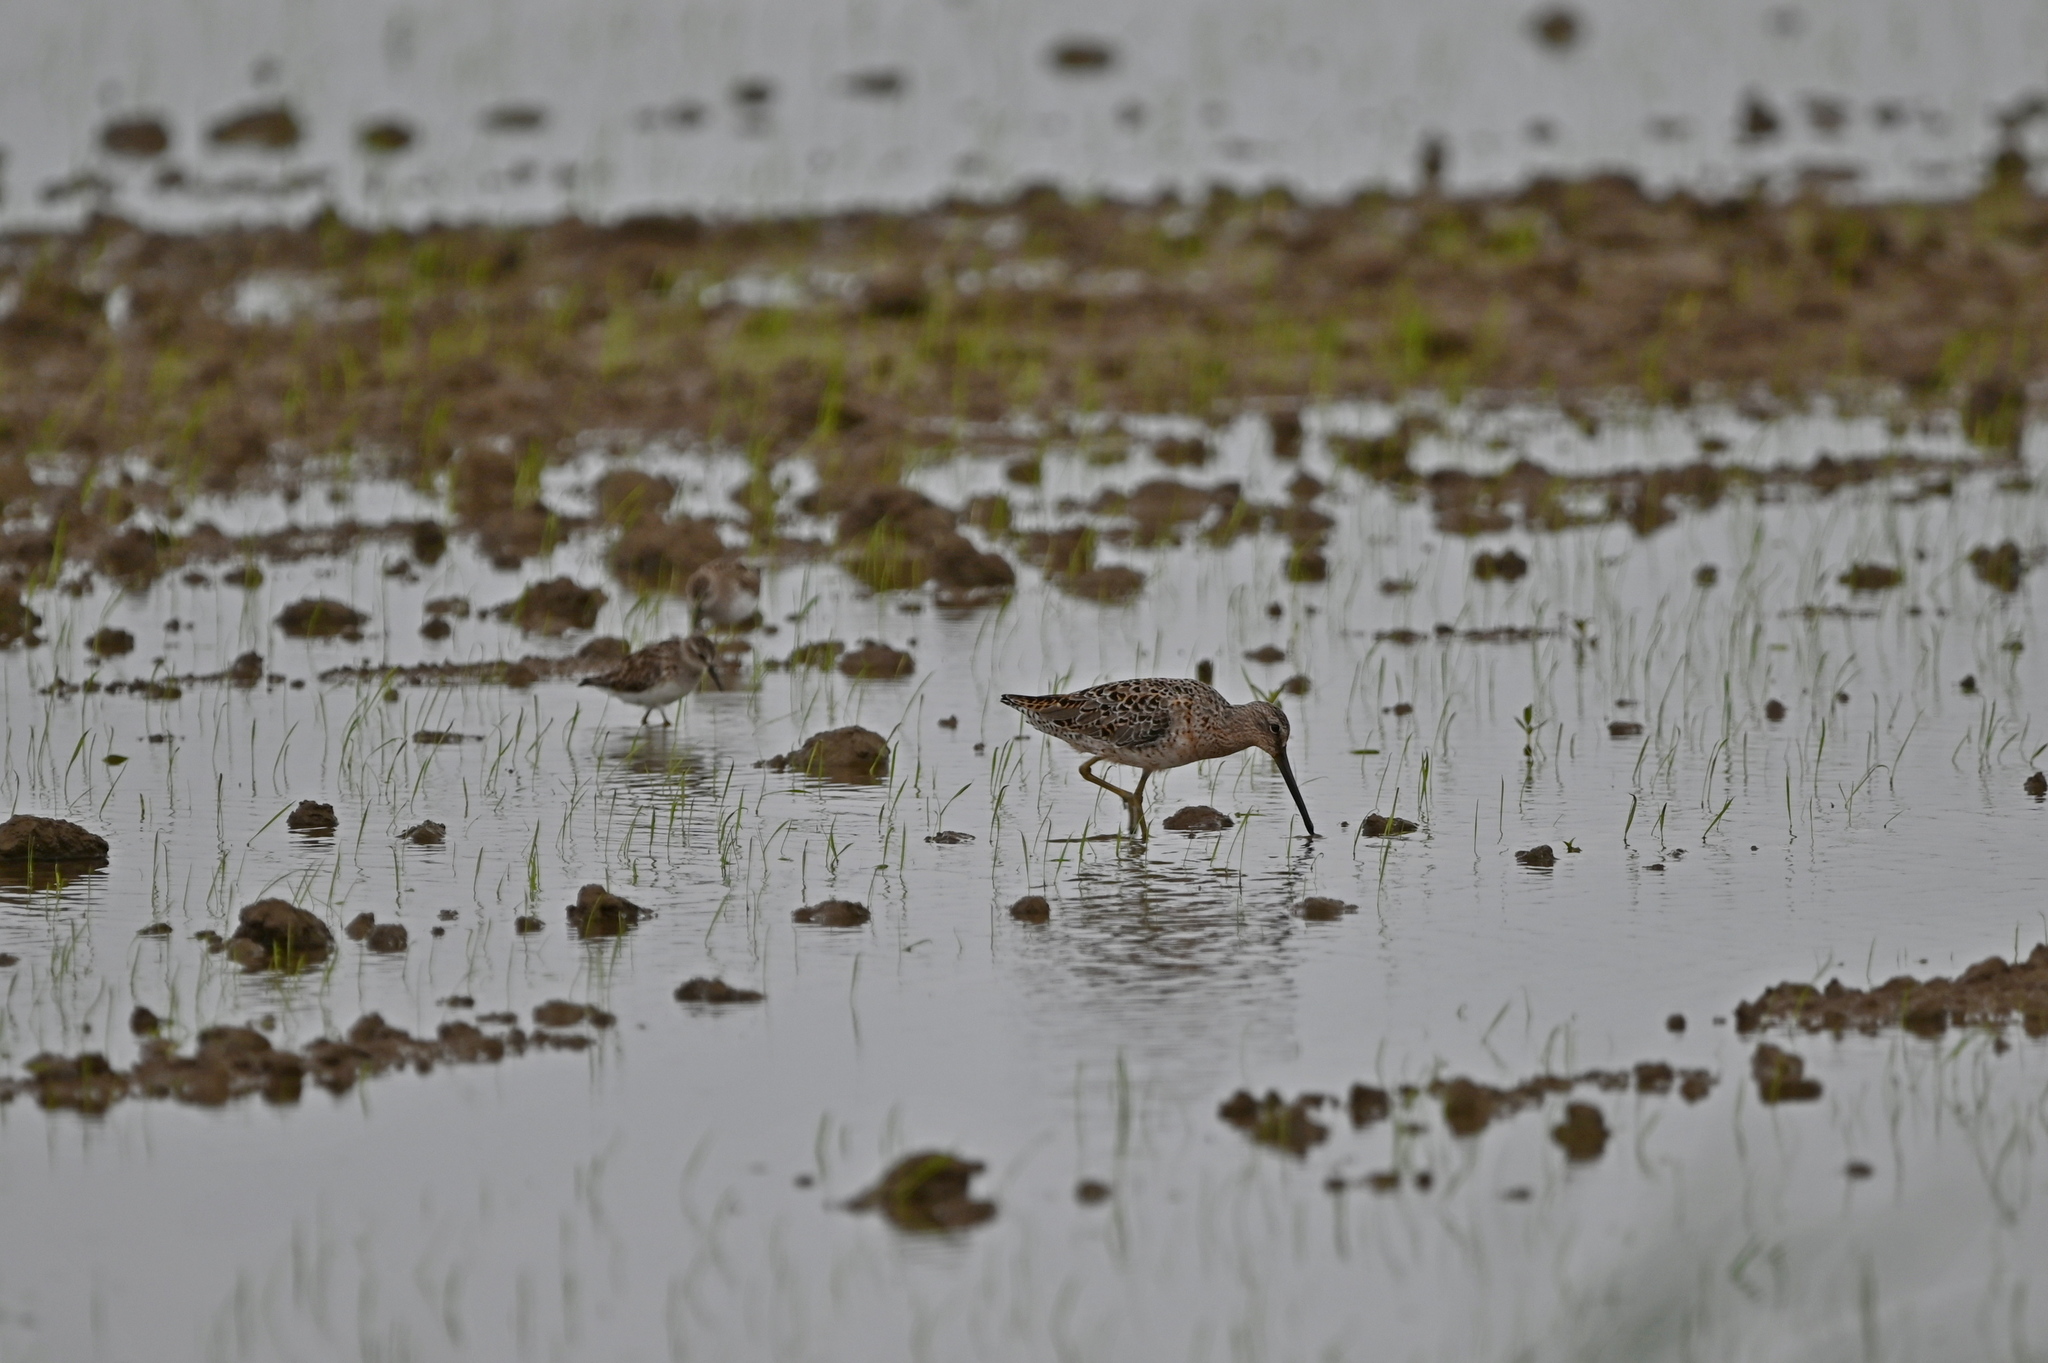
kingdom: Animalia
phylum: Chordata
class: Aves
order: Charadriiformes
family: Scolopacidae
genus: Limnodromus
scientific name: Limnodromus griseus
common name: Short-billed dowitcher
